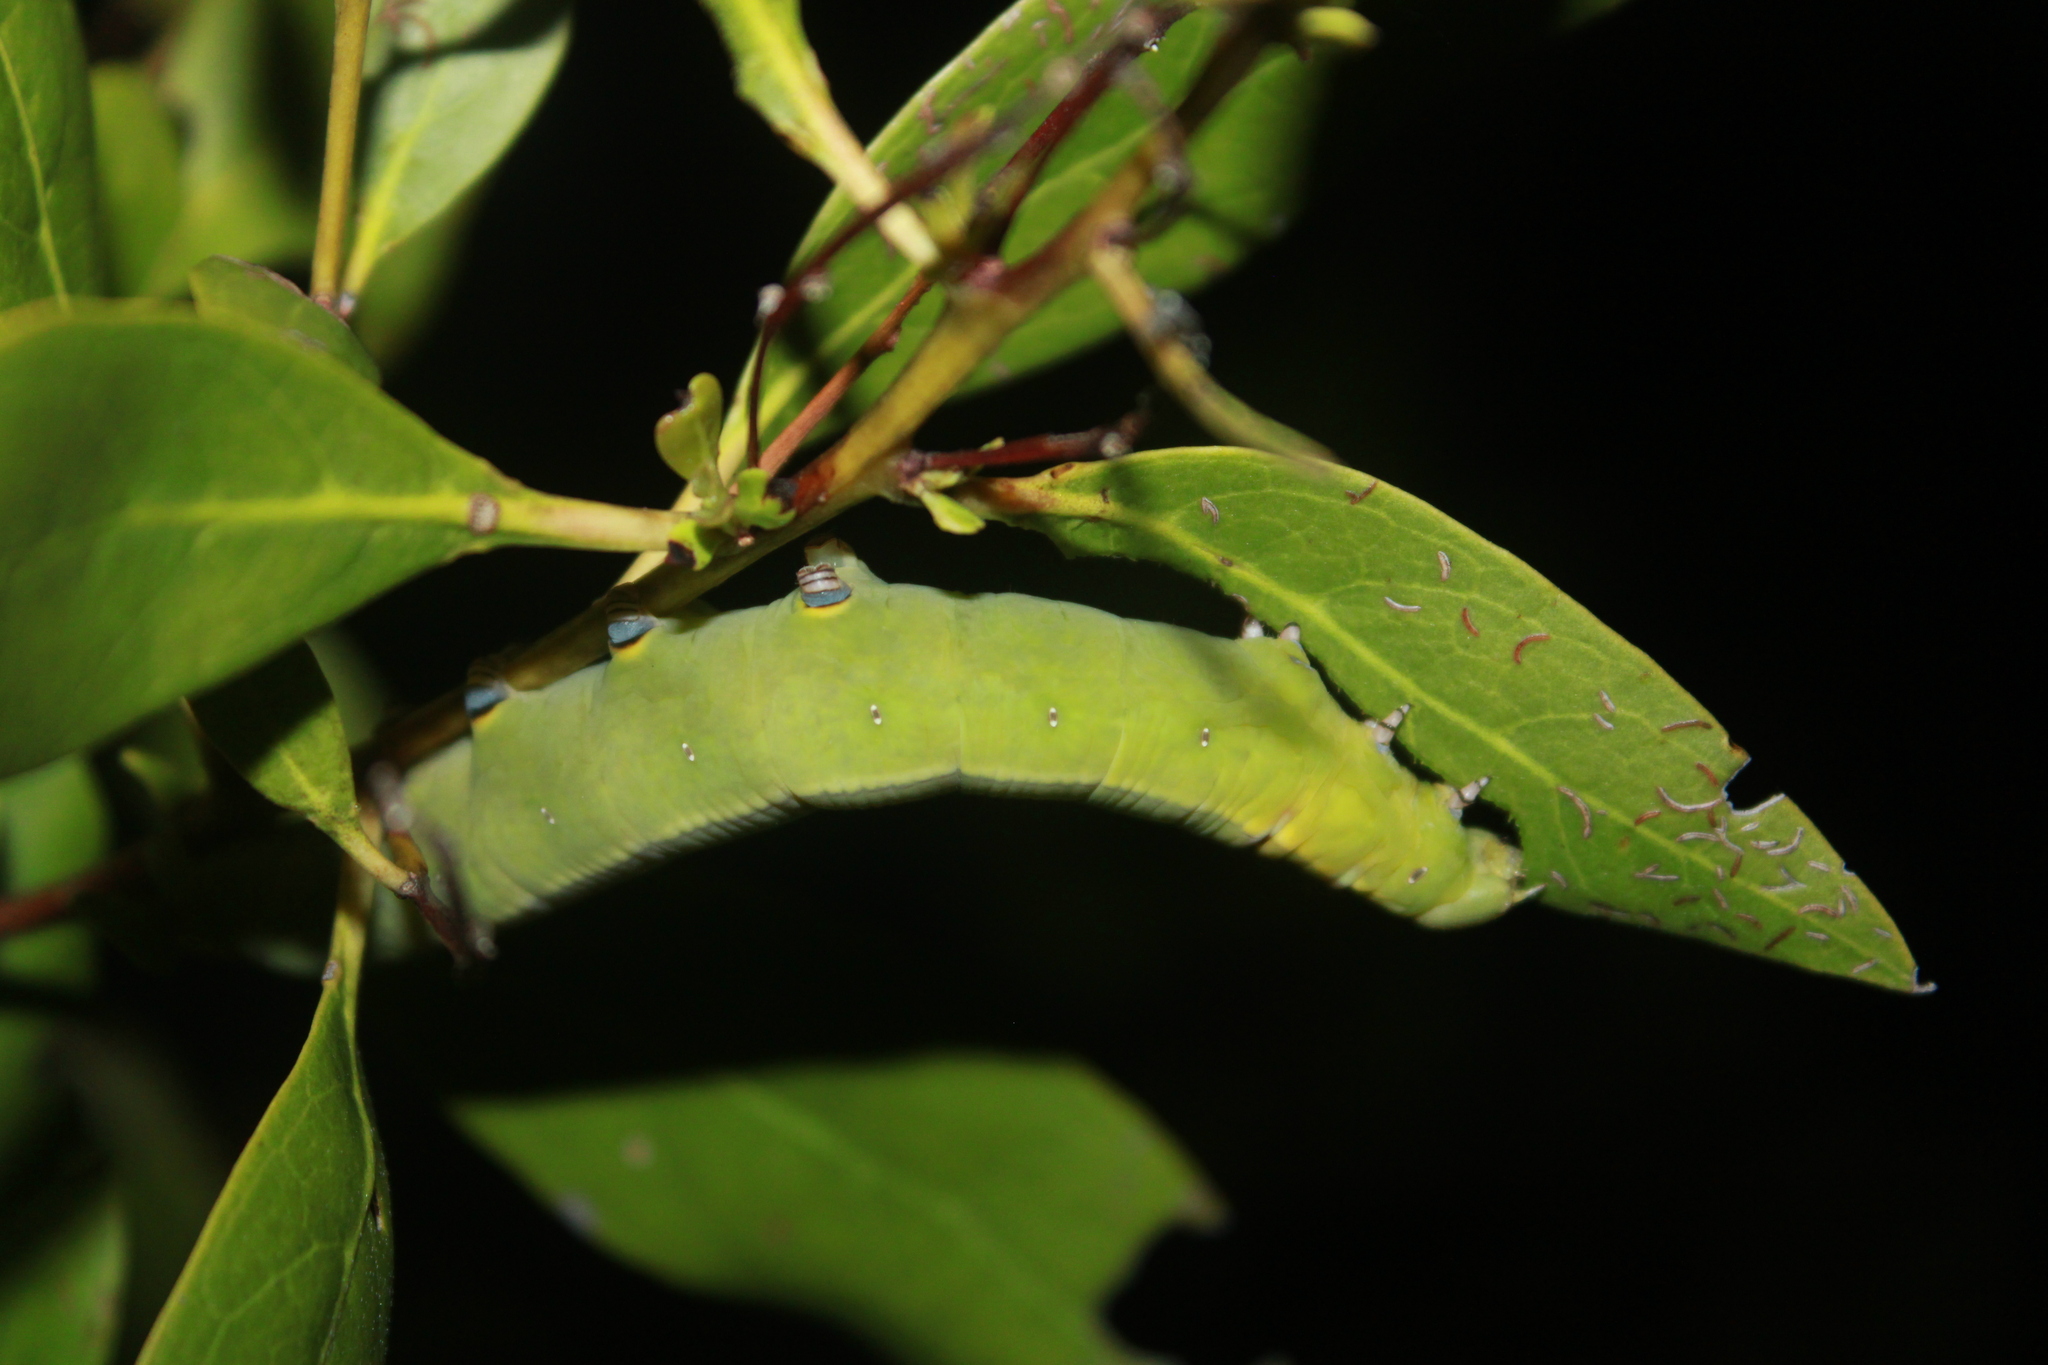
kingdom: Animalia
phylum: Arthropoda
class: Insecta
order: Lepidoptera
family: Sphingidae
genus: Erinnyis
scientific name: Erinnyis ello
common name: Ello sphinx
